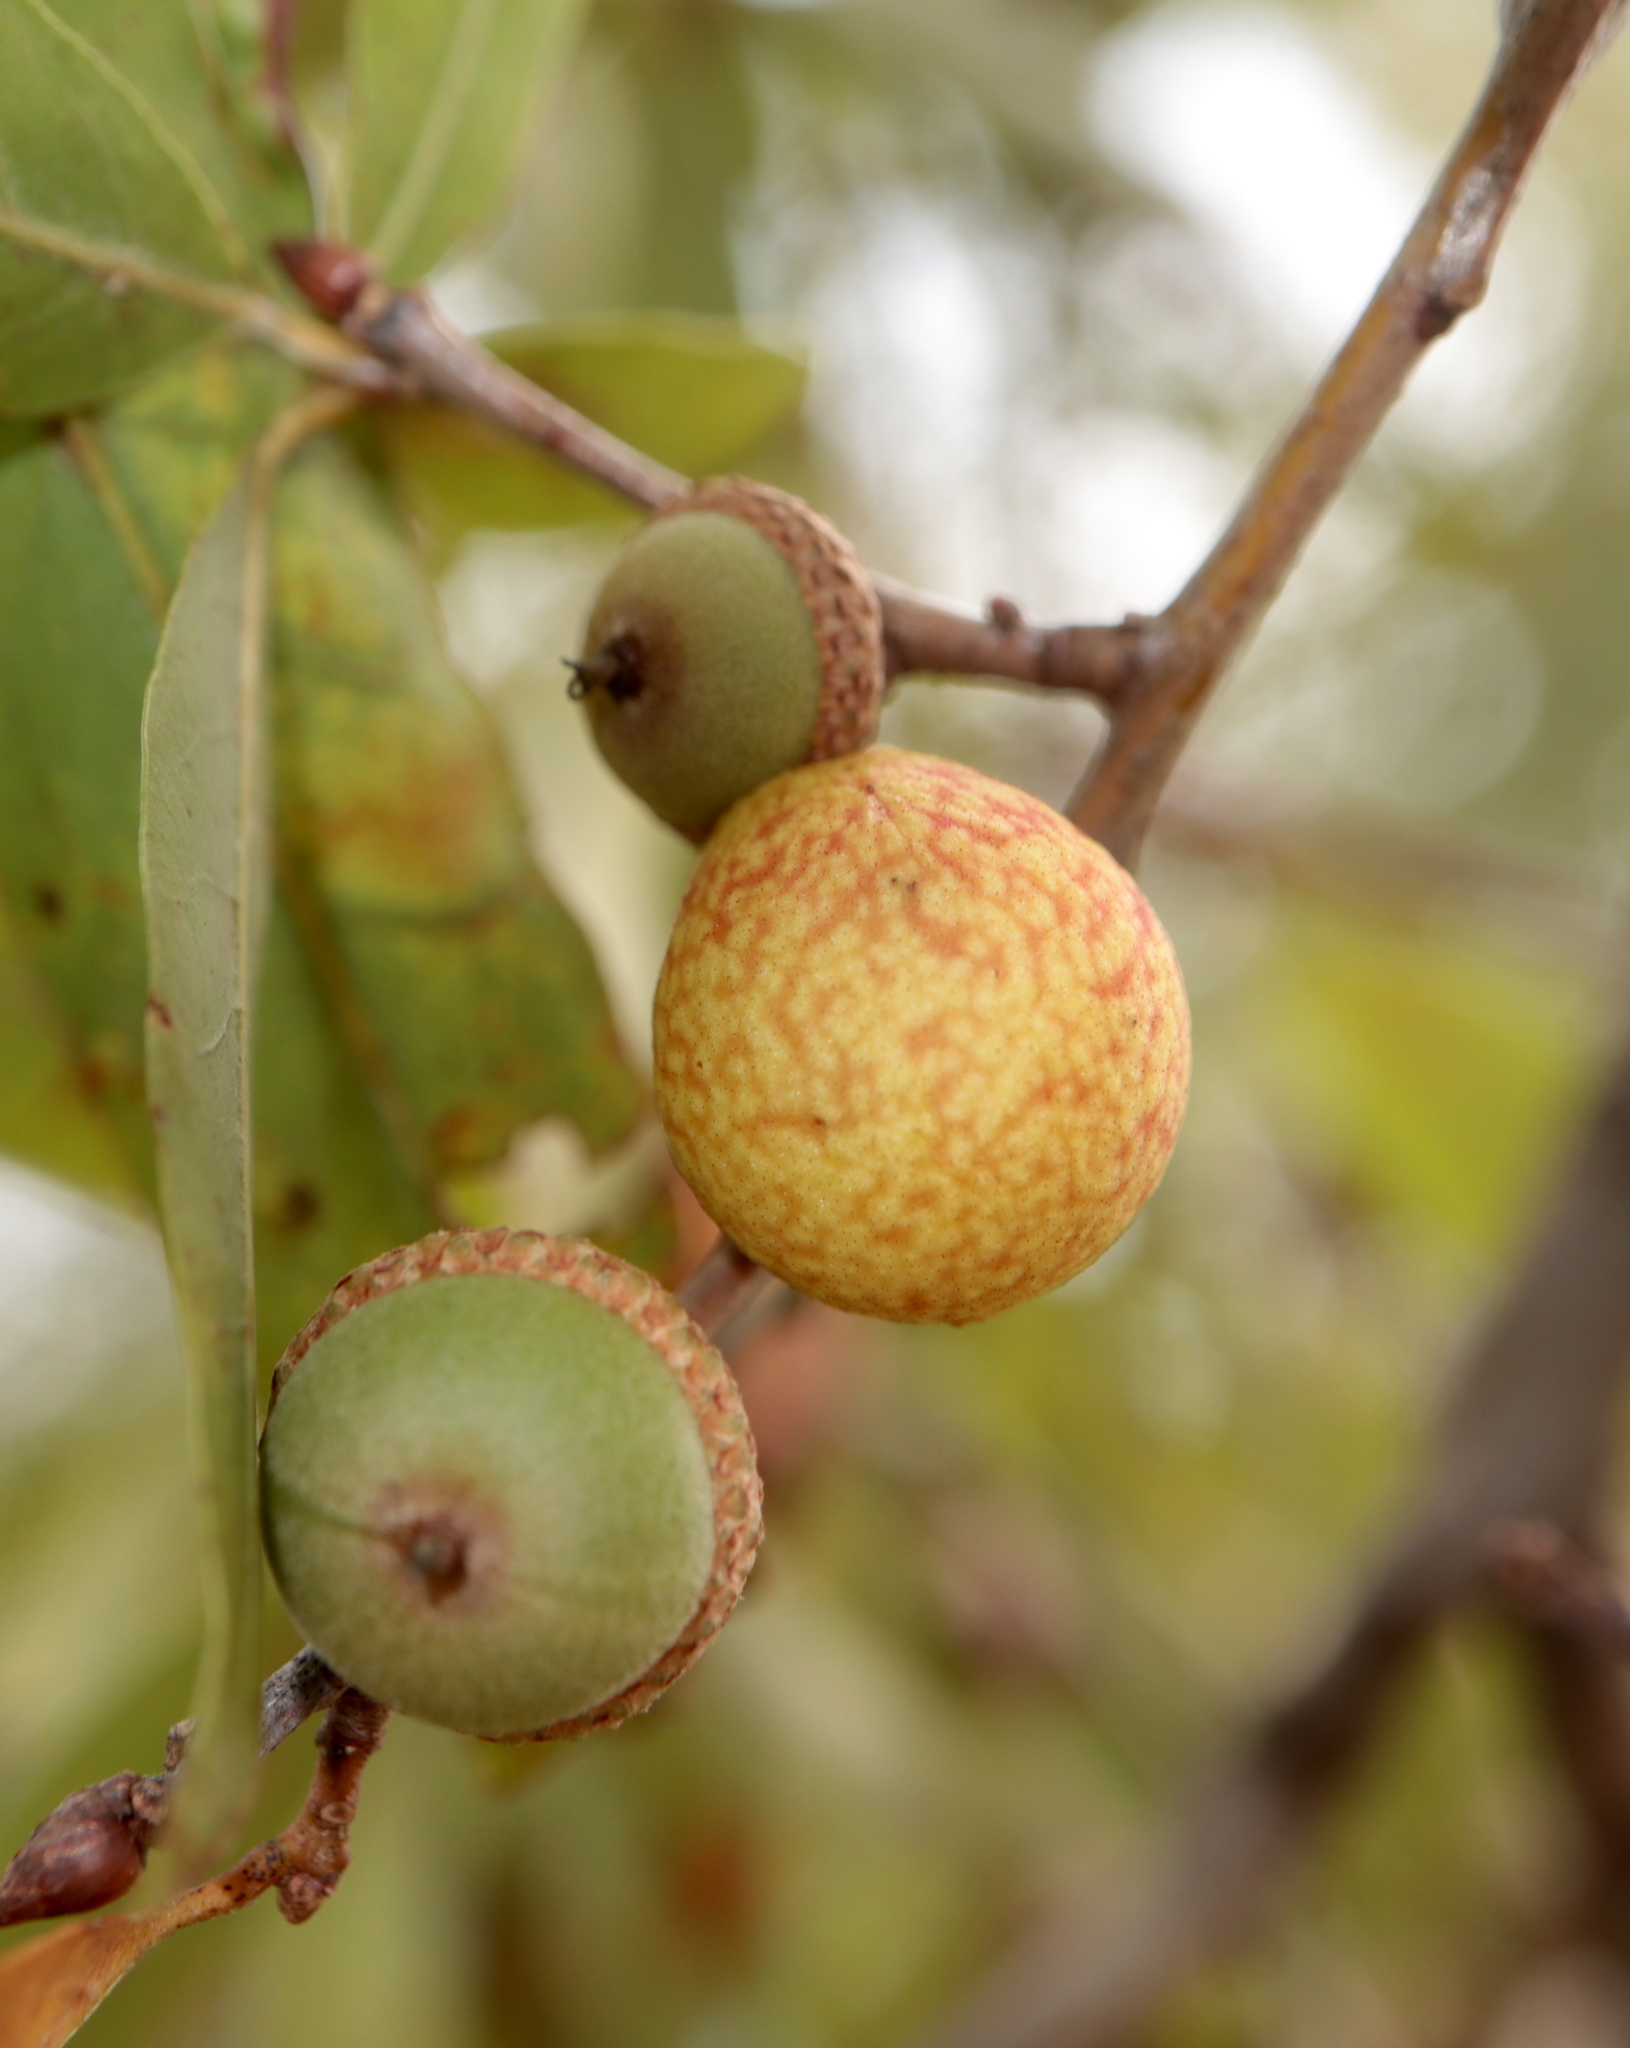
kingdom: Animalia
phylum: Arthropoda
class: Insecta
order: Hymenoptera
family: Cynipidae
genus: Amphibolips
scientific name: Amphibolips
